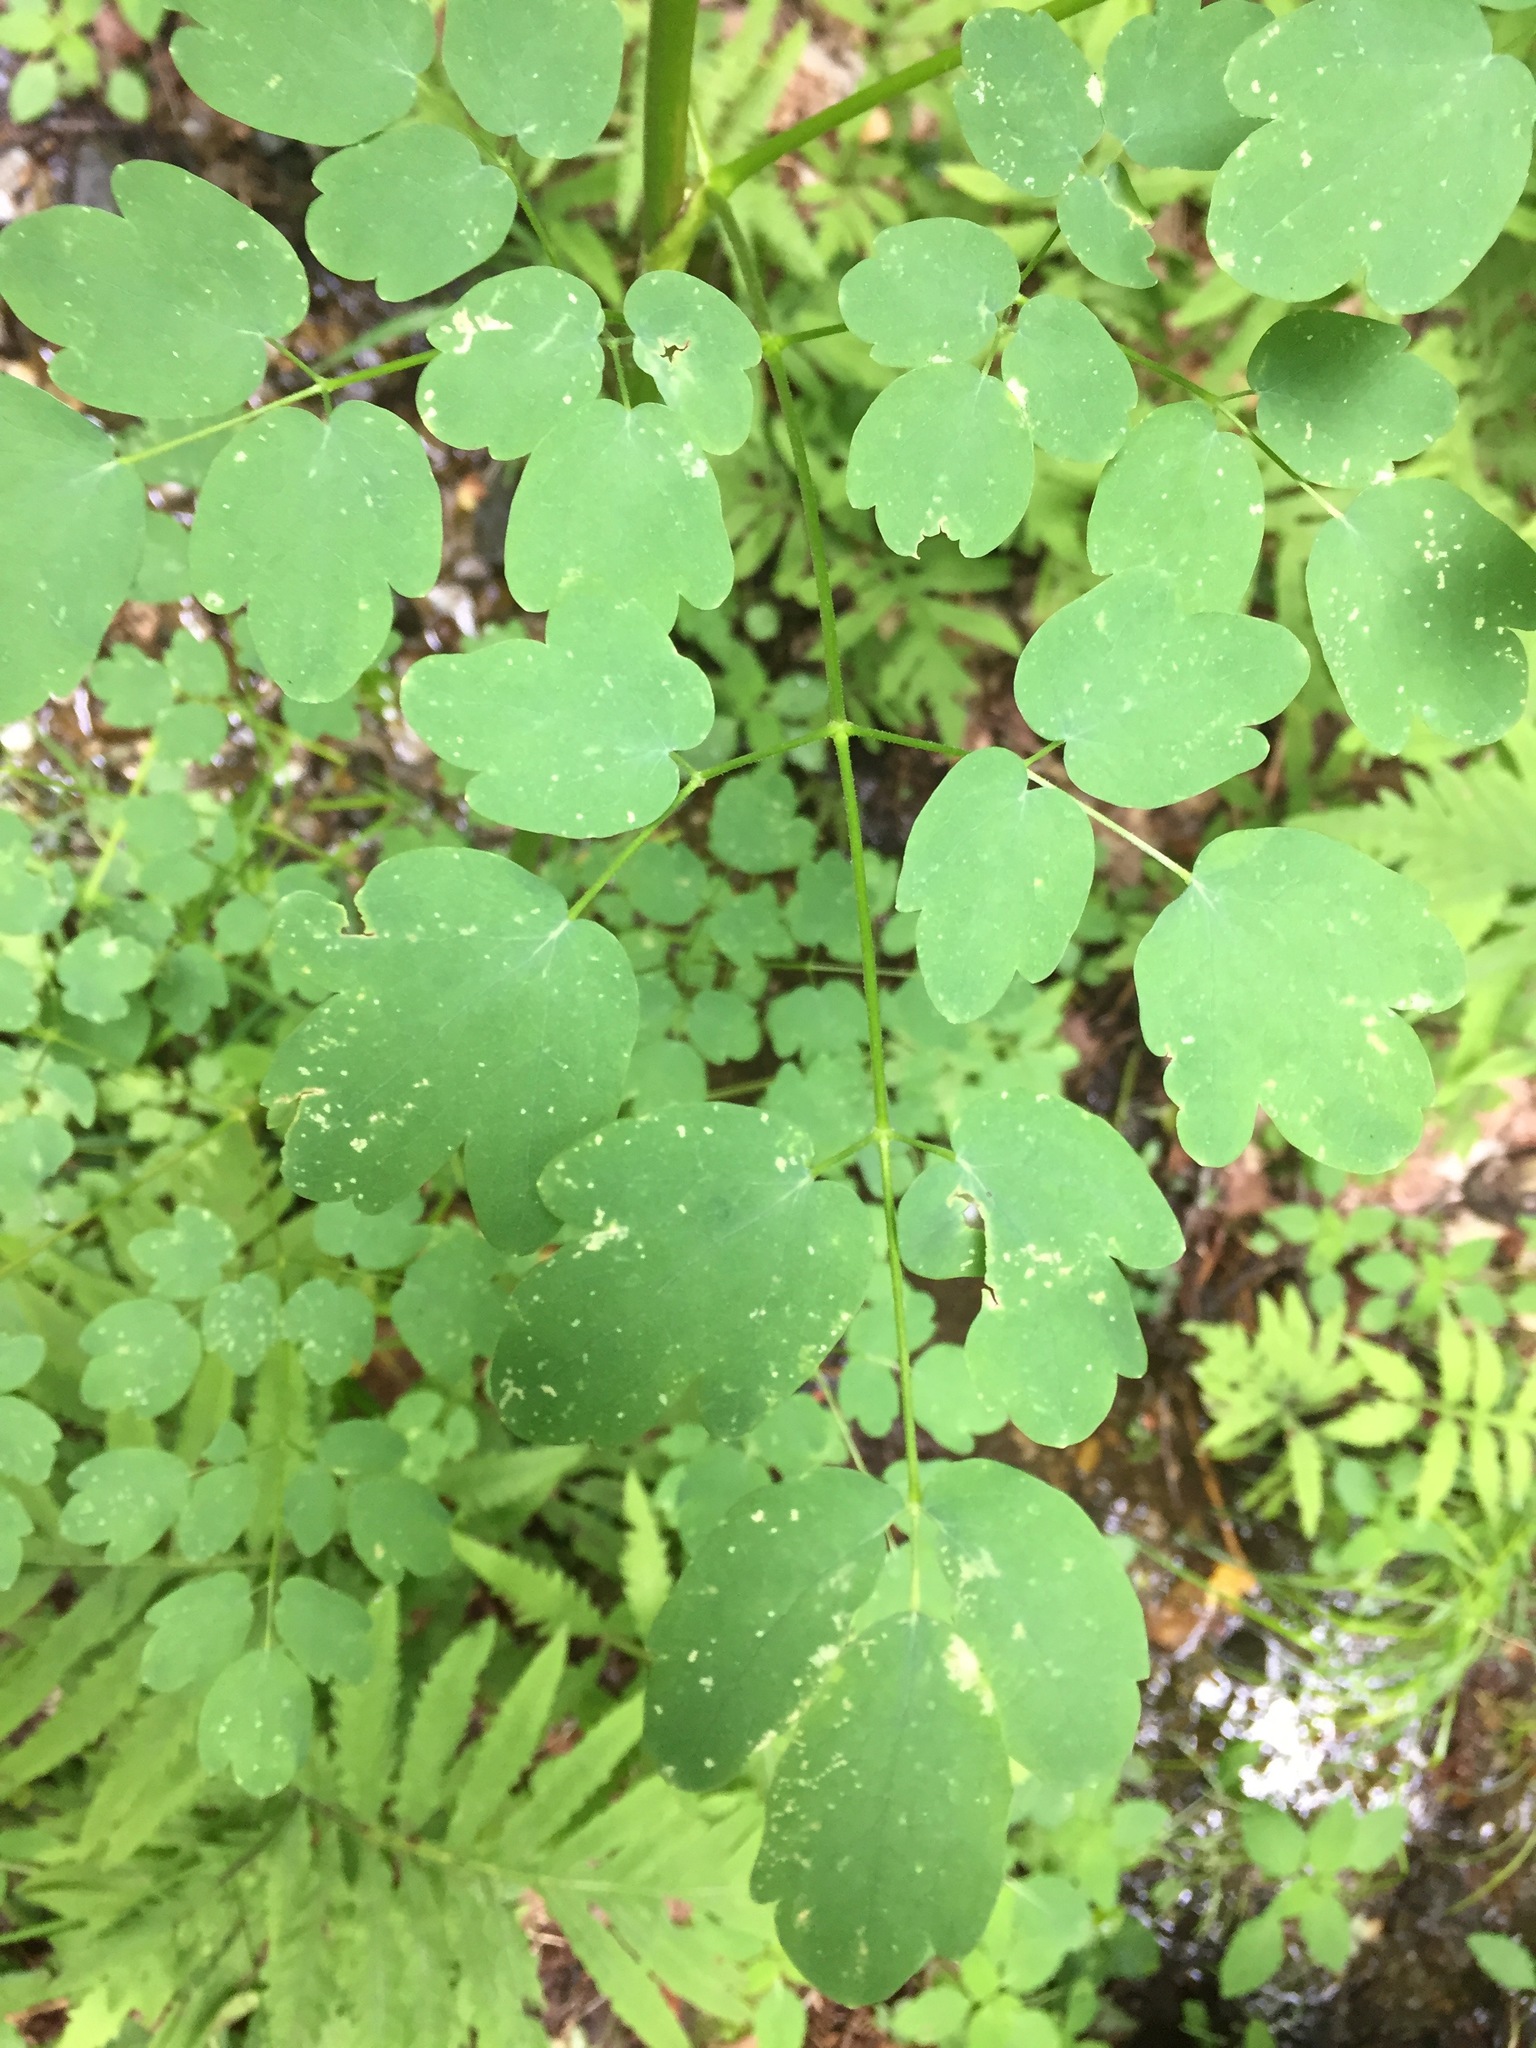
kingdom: Plantae
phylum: Tracheophyta
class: Magnoliopsida
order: Ranunculales
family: Ranunculaceae
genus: Thalictrum
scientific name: Thalictrum pubescens
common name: King-of-the-meadow
